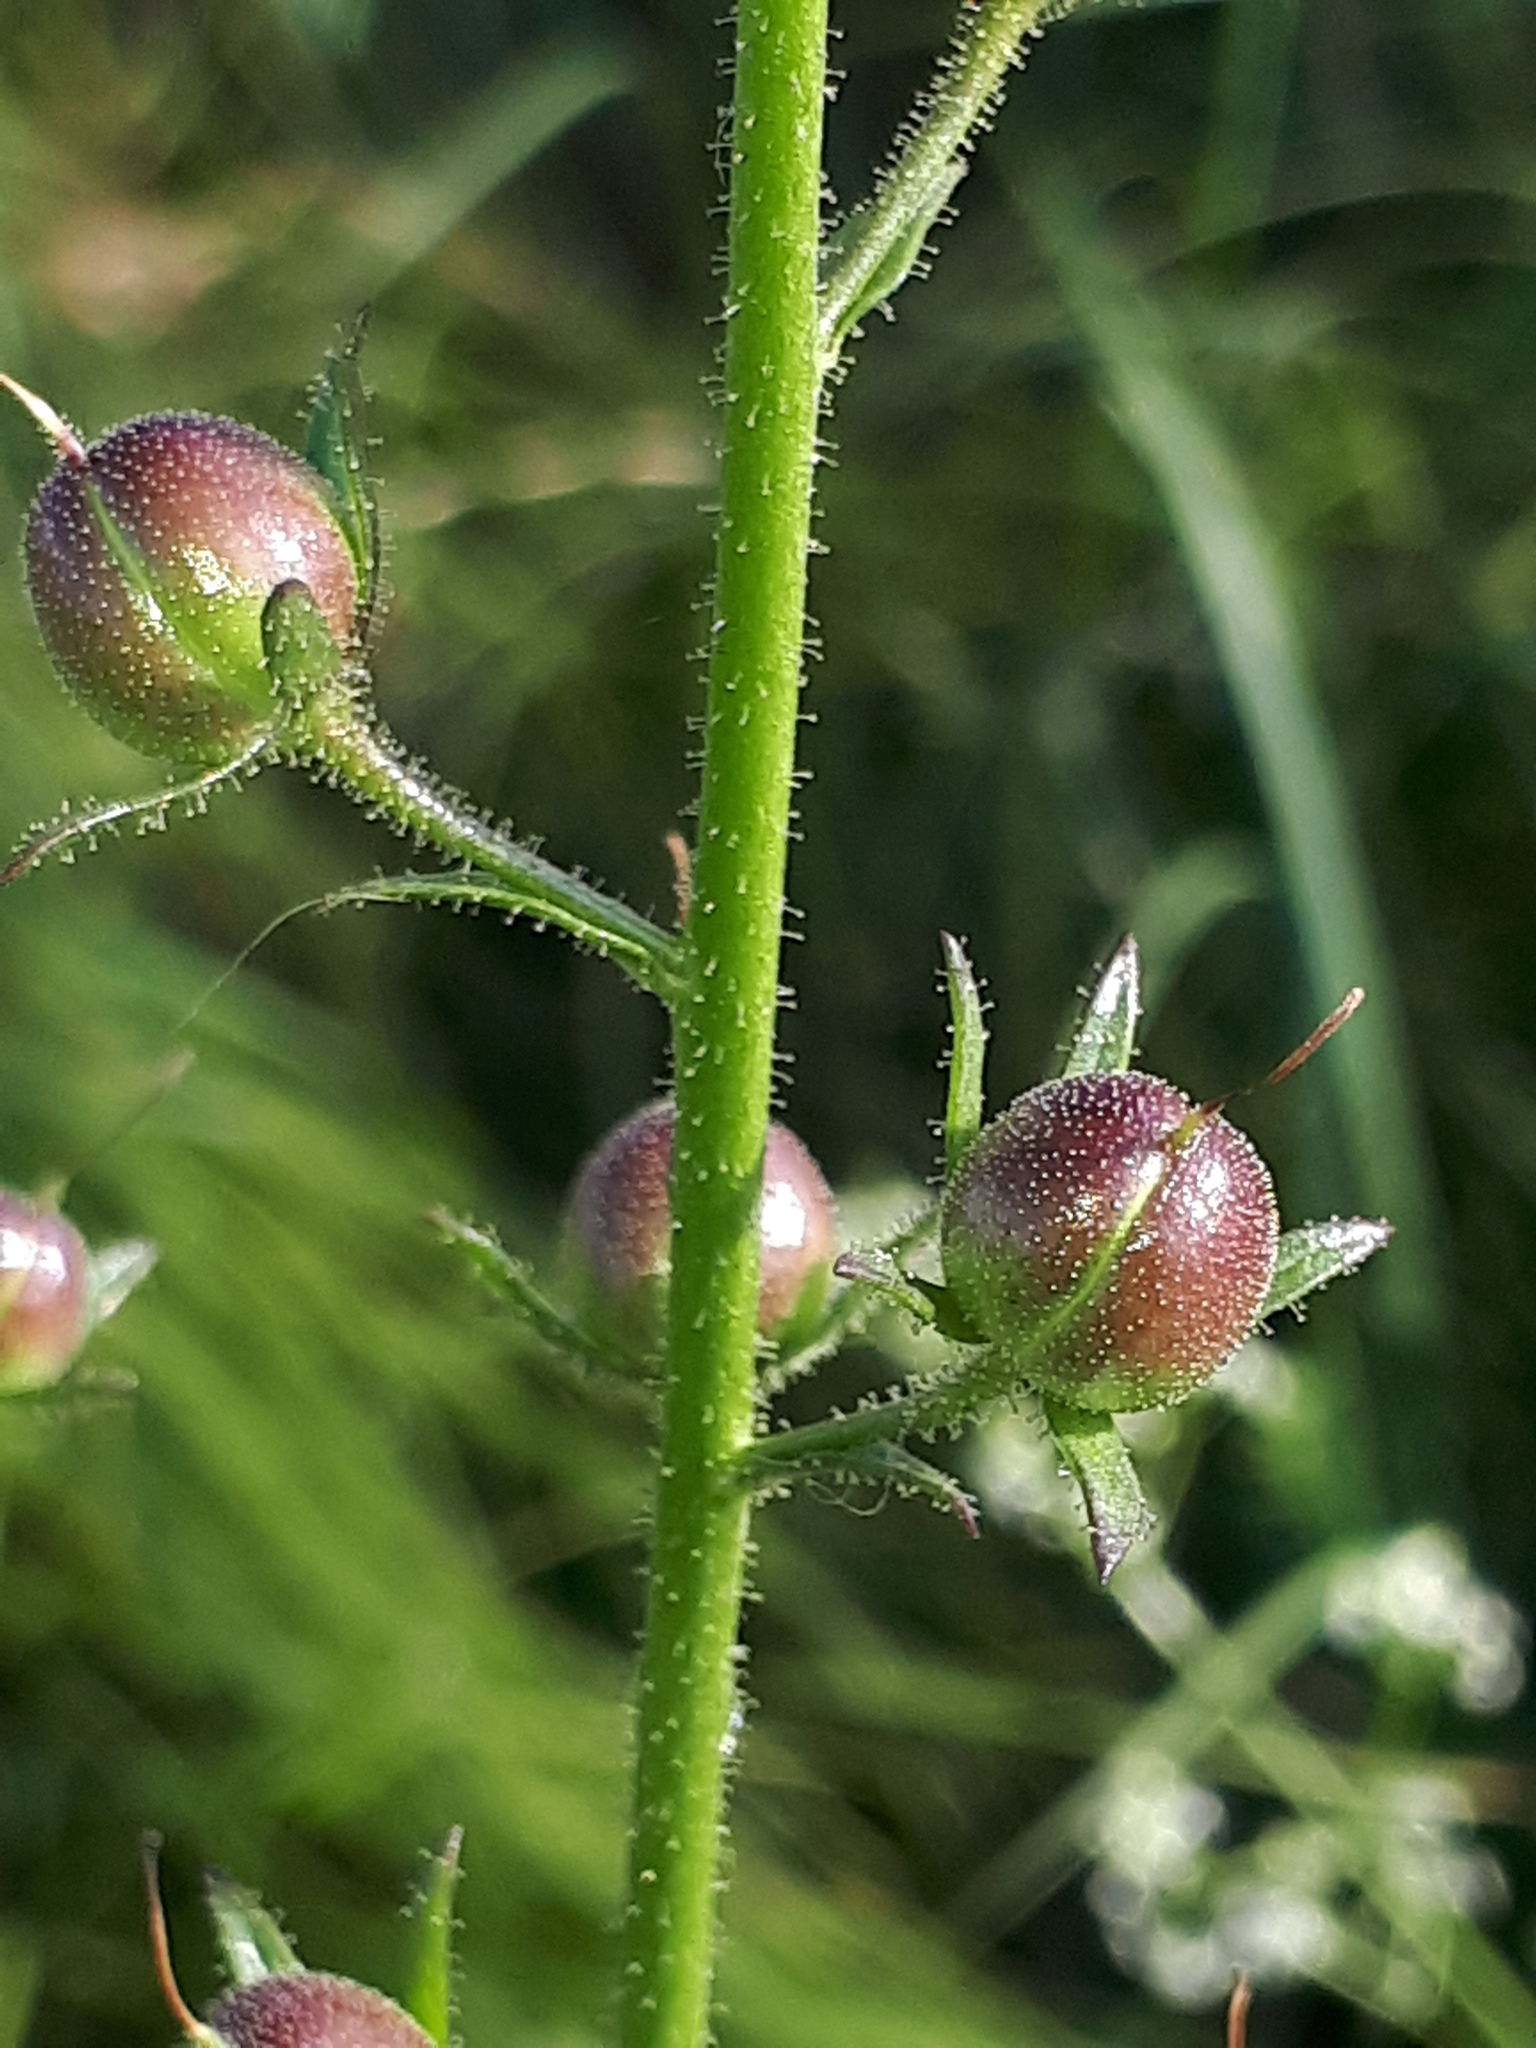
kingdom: Plantae
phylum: Tracheophyta
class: Magnoliopsida
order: Lamiales
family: Scrophulariaceae
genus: Verbascum
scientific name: Verbascum blattaria
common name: Moth mullein
